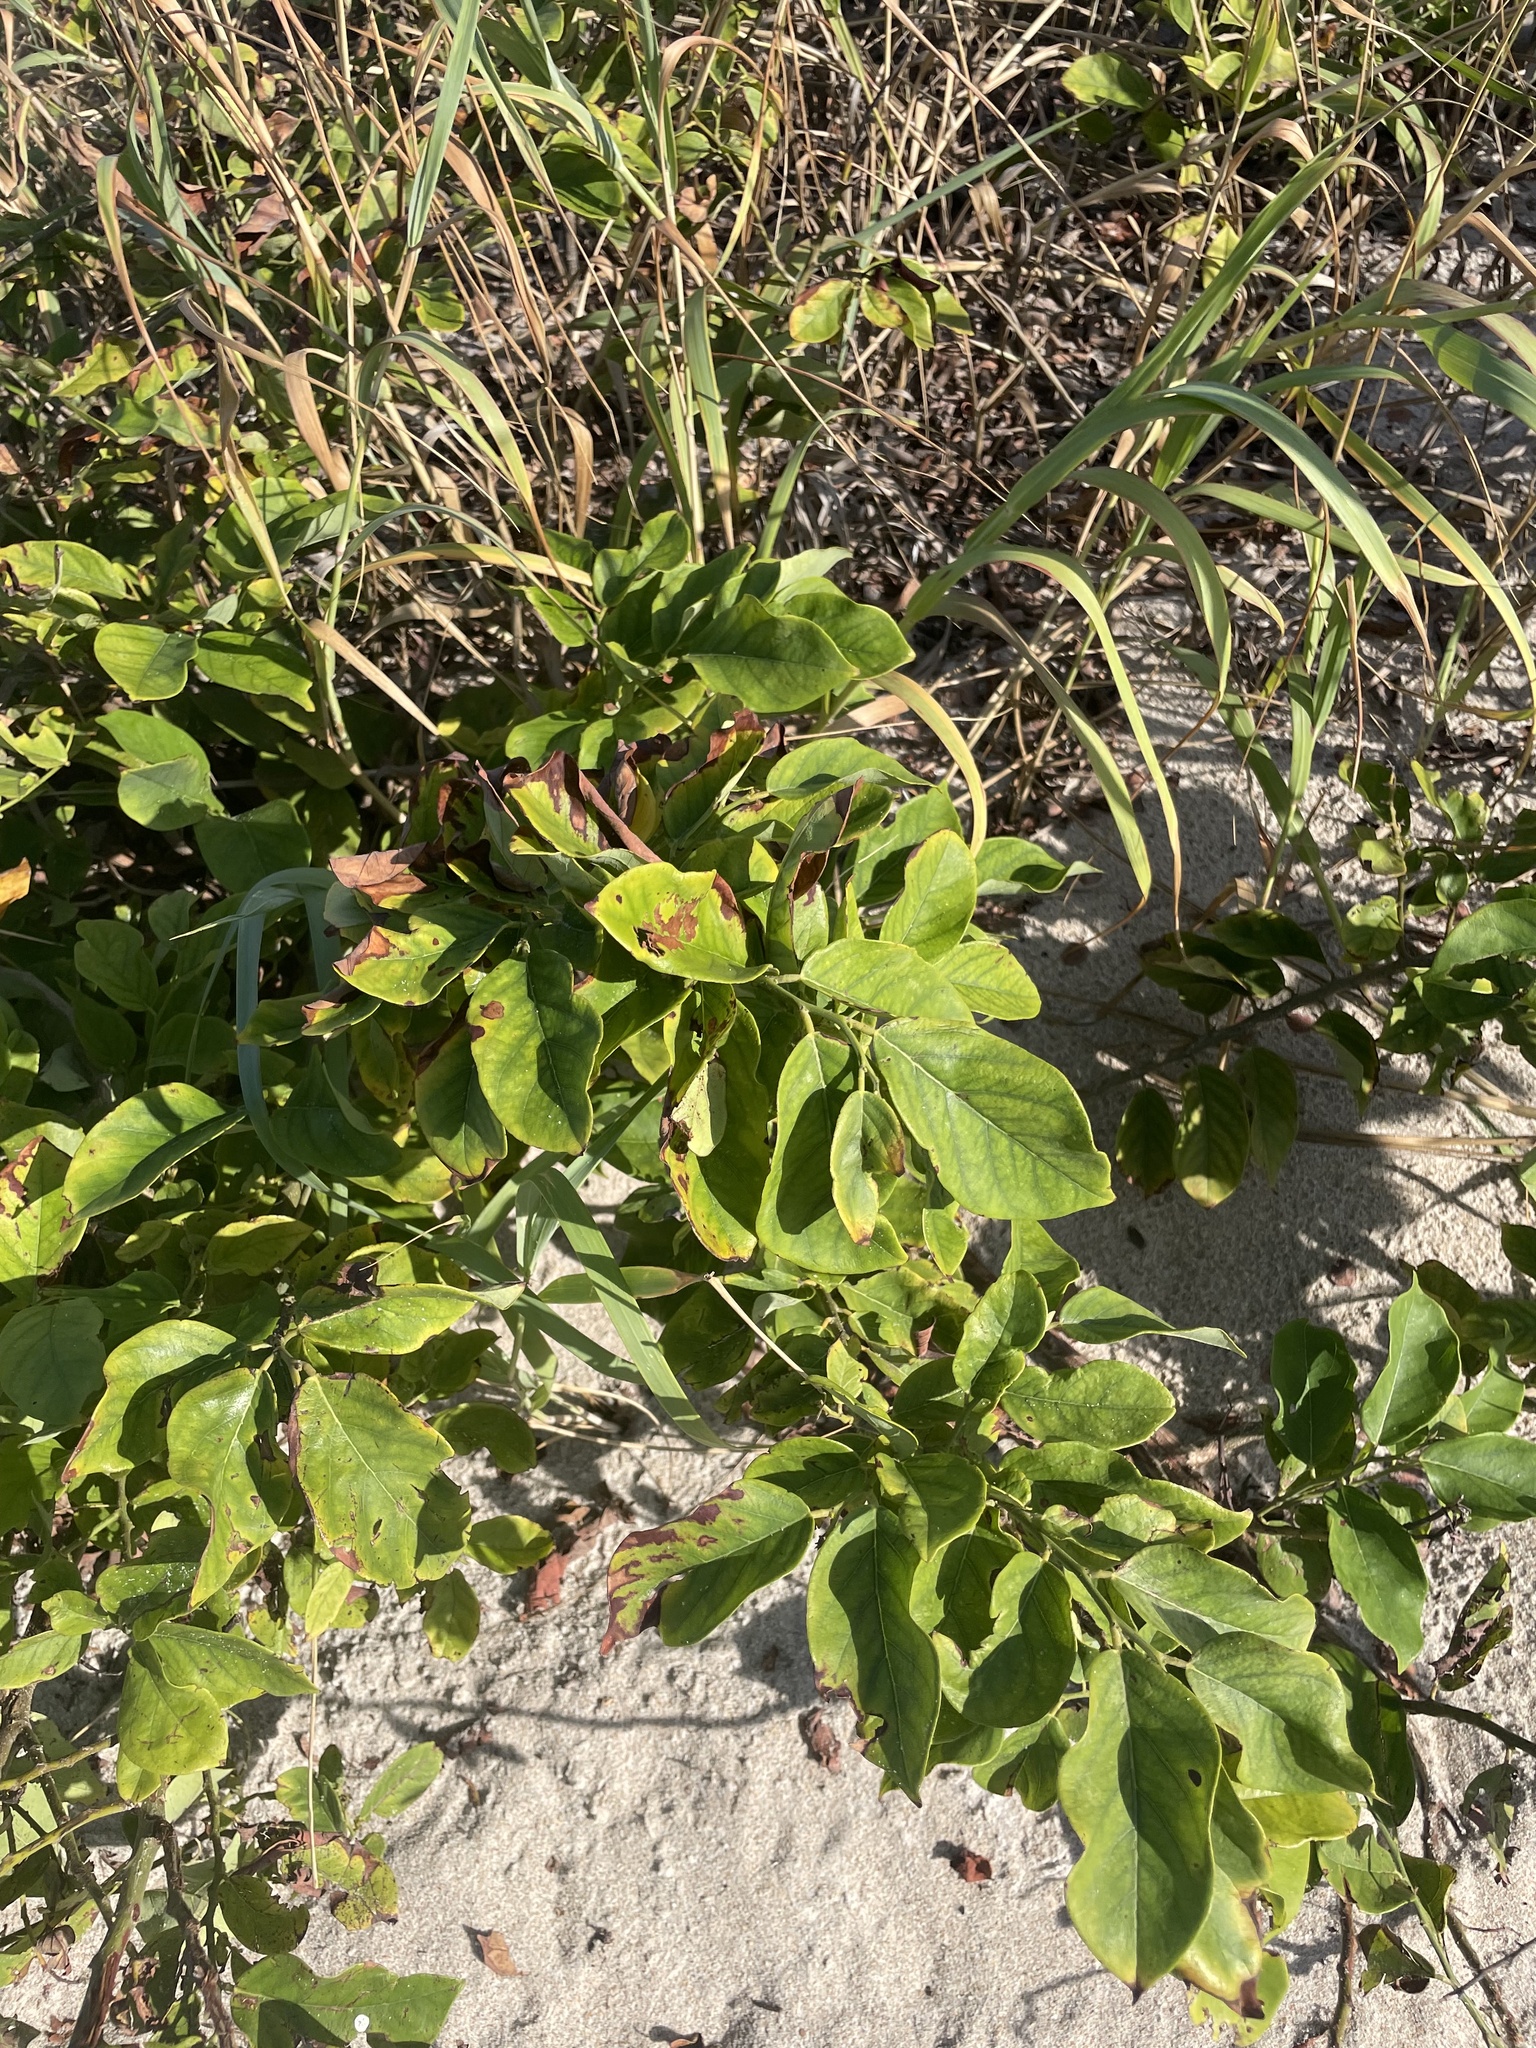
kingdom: Plantae
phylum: Tracheophyta
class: Magnoliopsida
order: Fabales
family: Fabaceae
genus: Dalbergia
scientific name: Dalbergia ecastaphyllum
